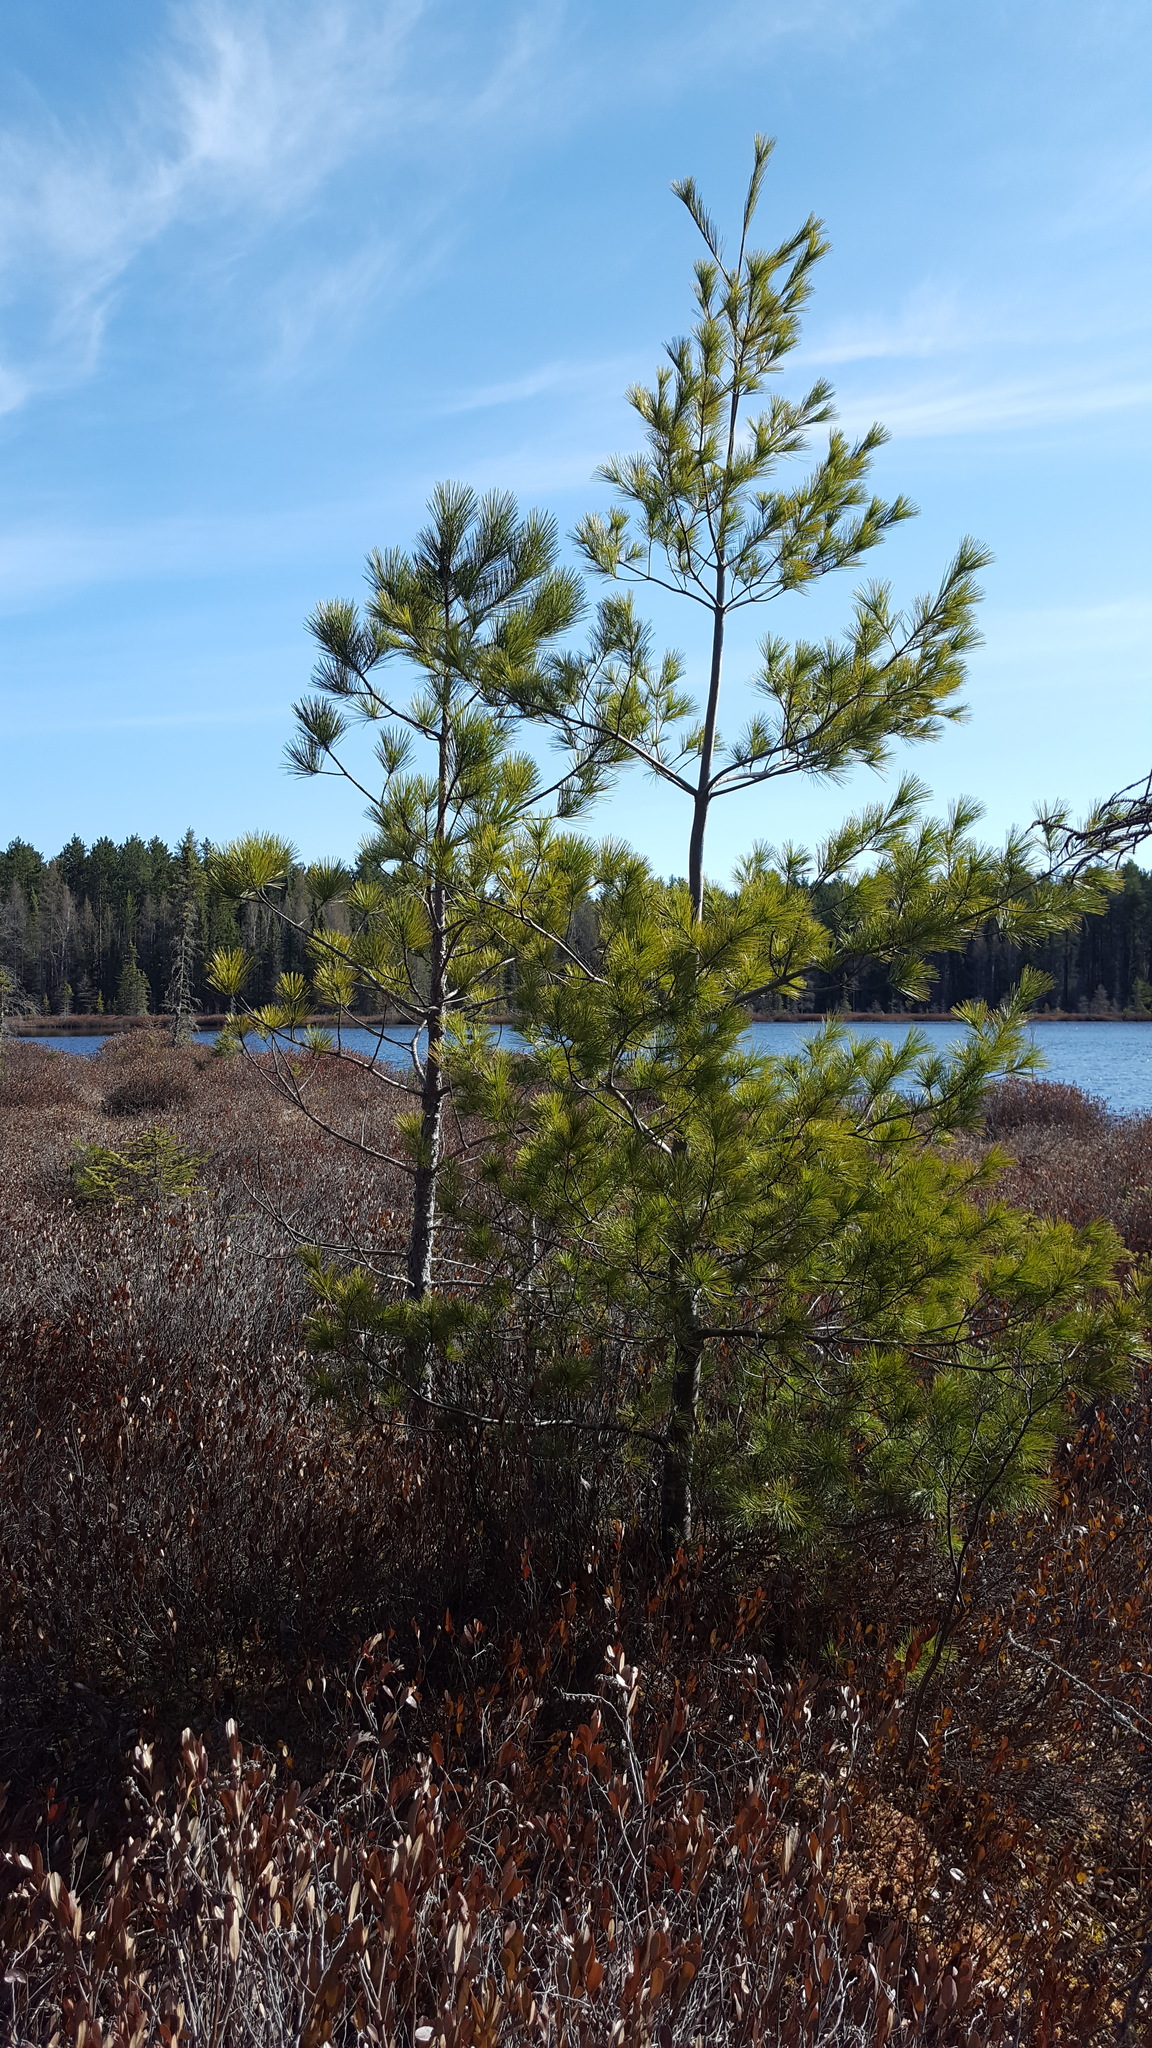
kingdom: Plantae
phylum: Tracheophyta
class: Pinopsida
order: Pinales
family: Pinaceae
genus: Pinus
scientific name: Pinus strobus
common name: Weymouth pine
